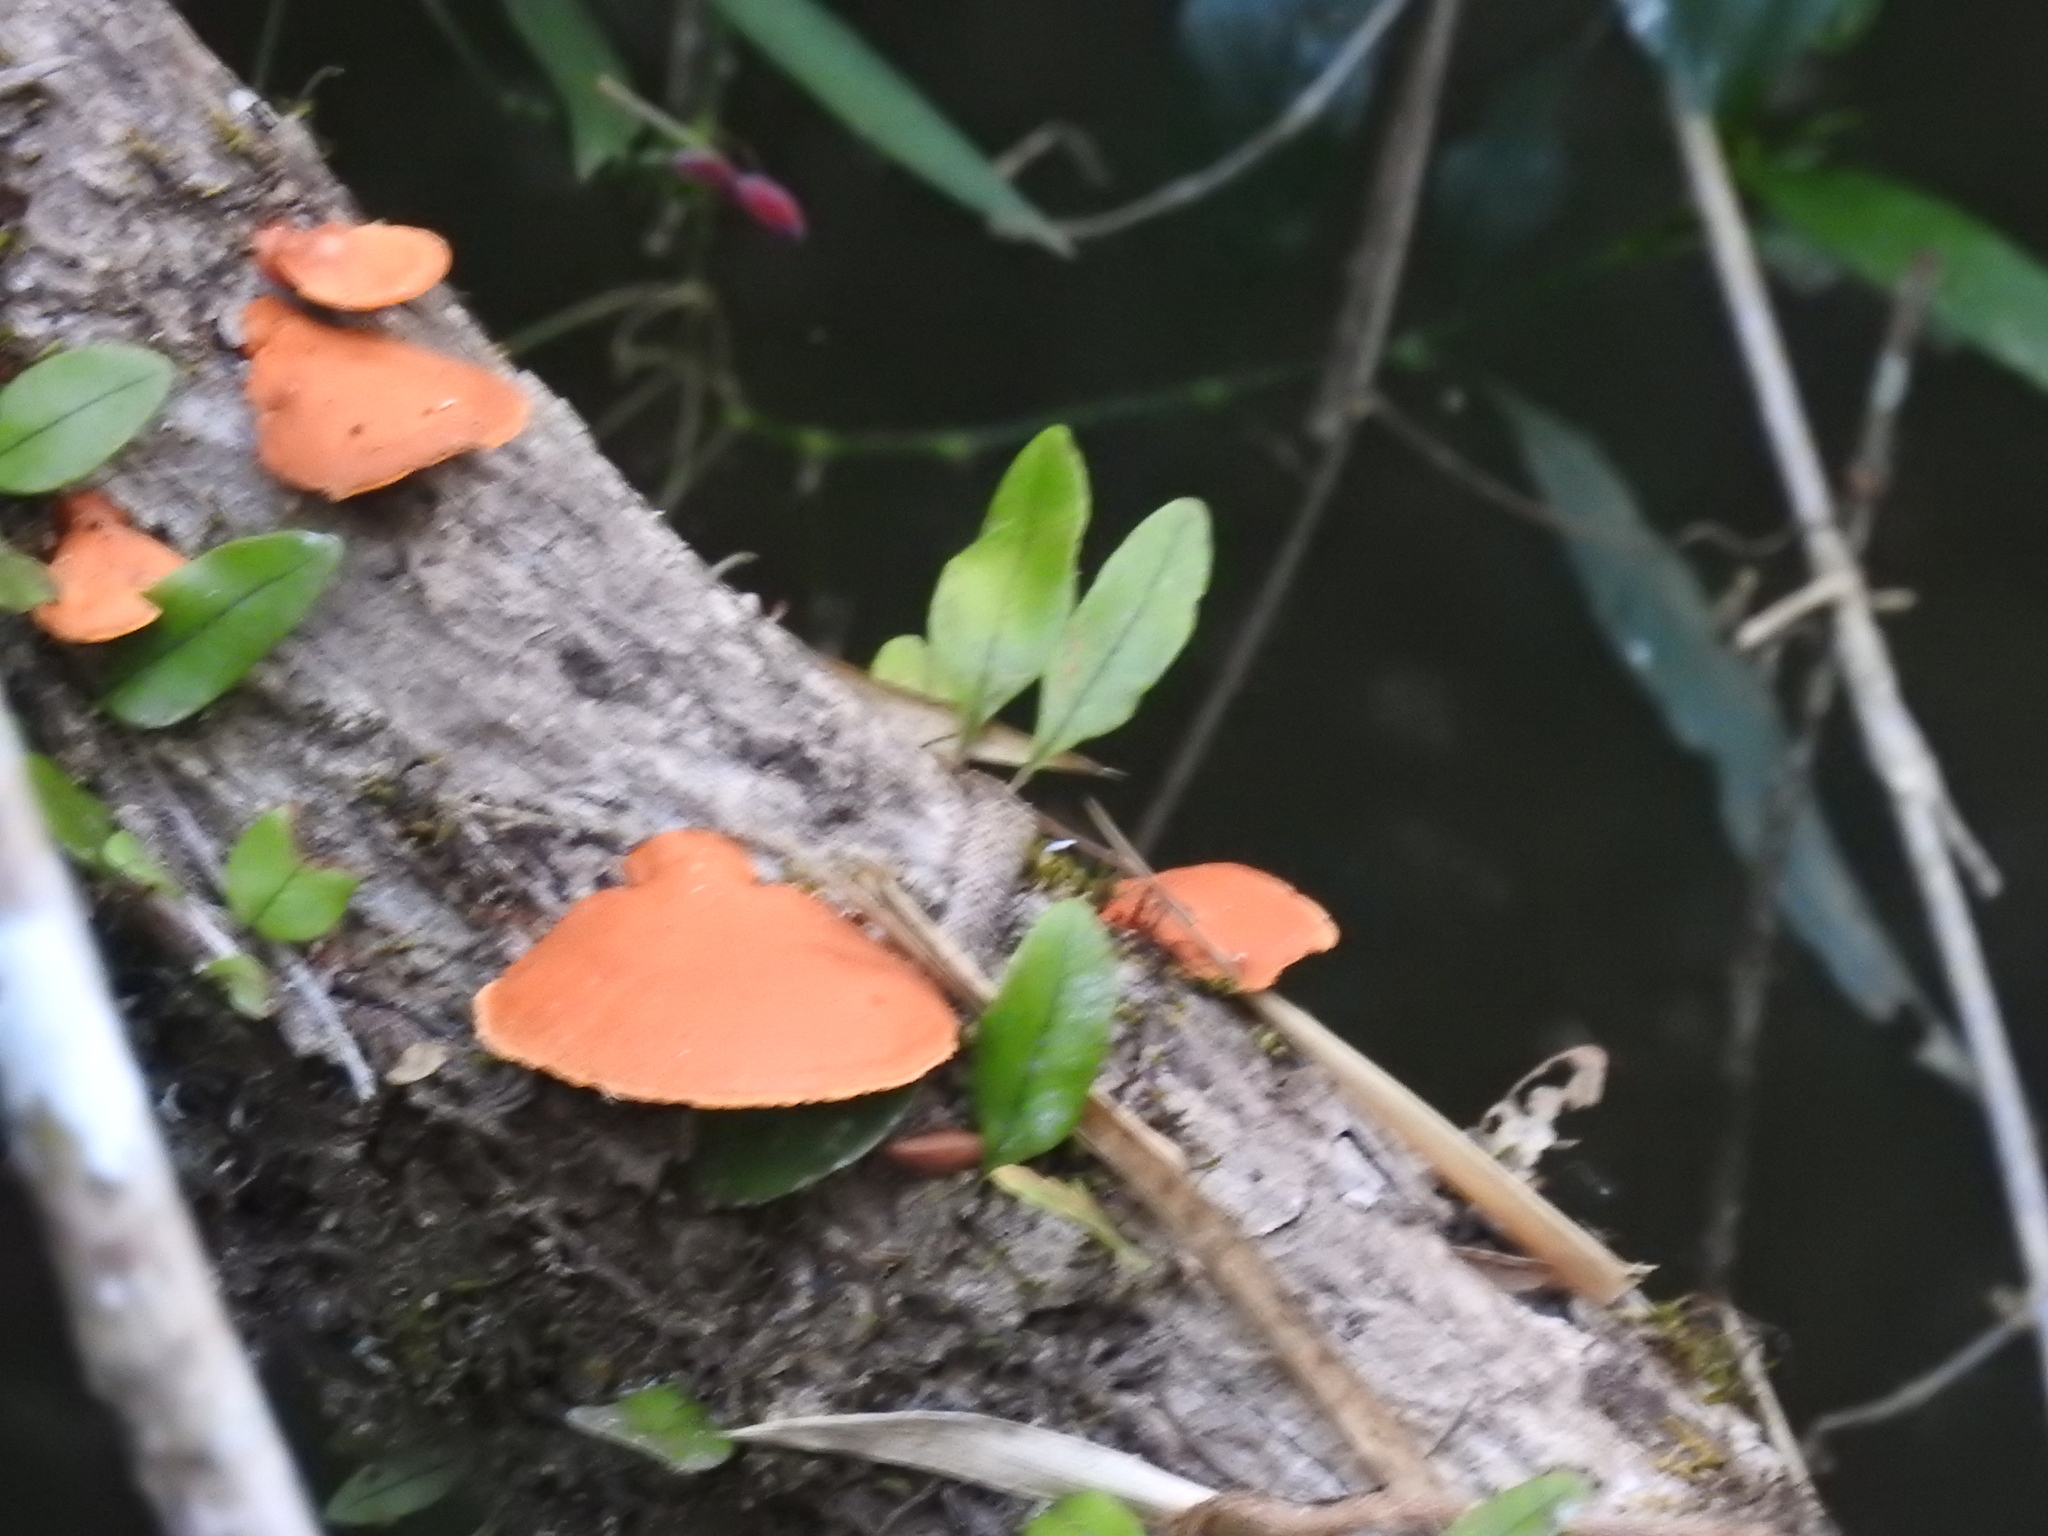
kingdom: Fungi
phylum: Basidiomycota
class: Agaricomycetes
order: Polyporales
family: Polyporaceae
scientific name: Polyporaceae
